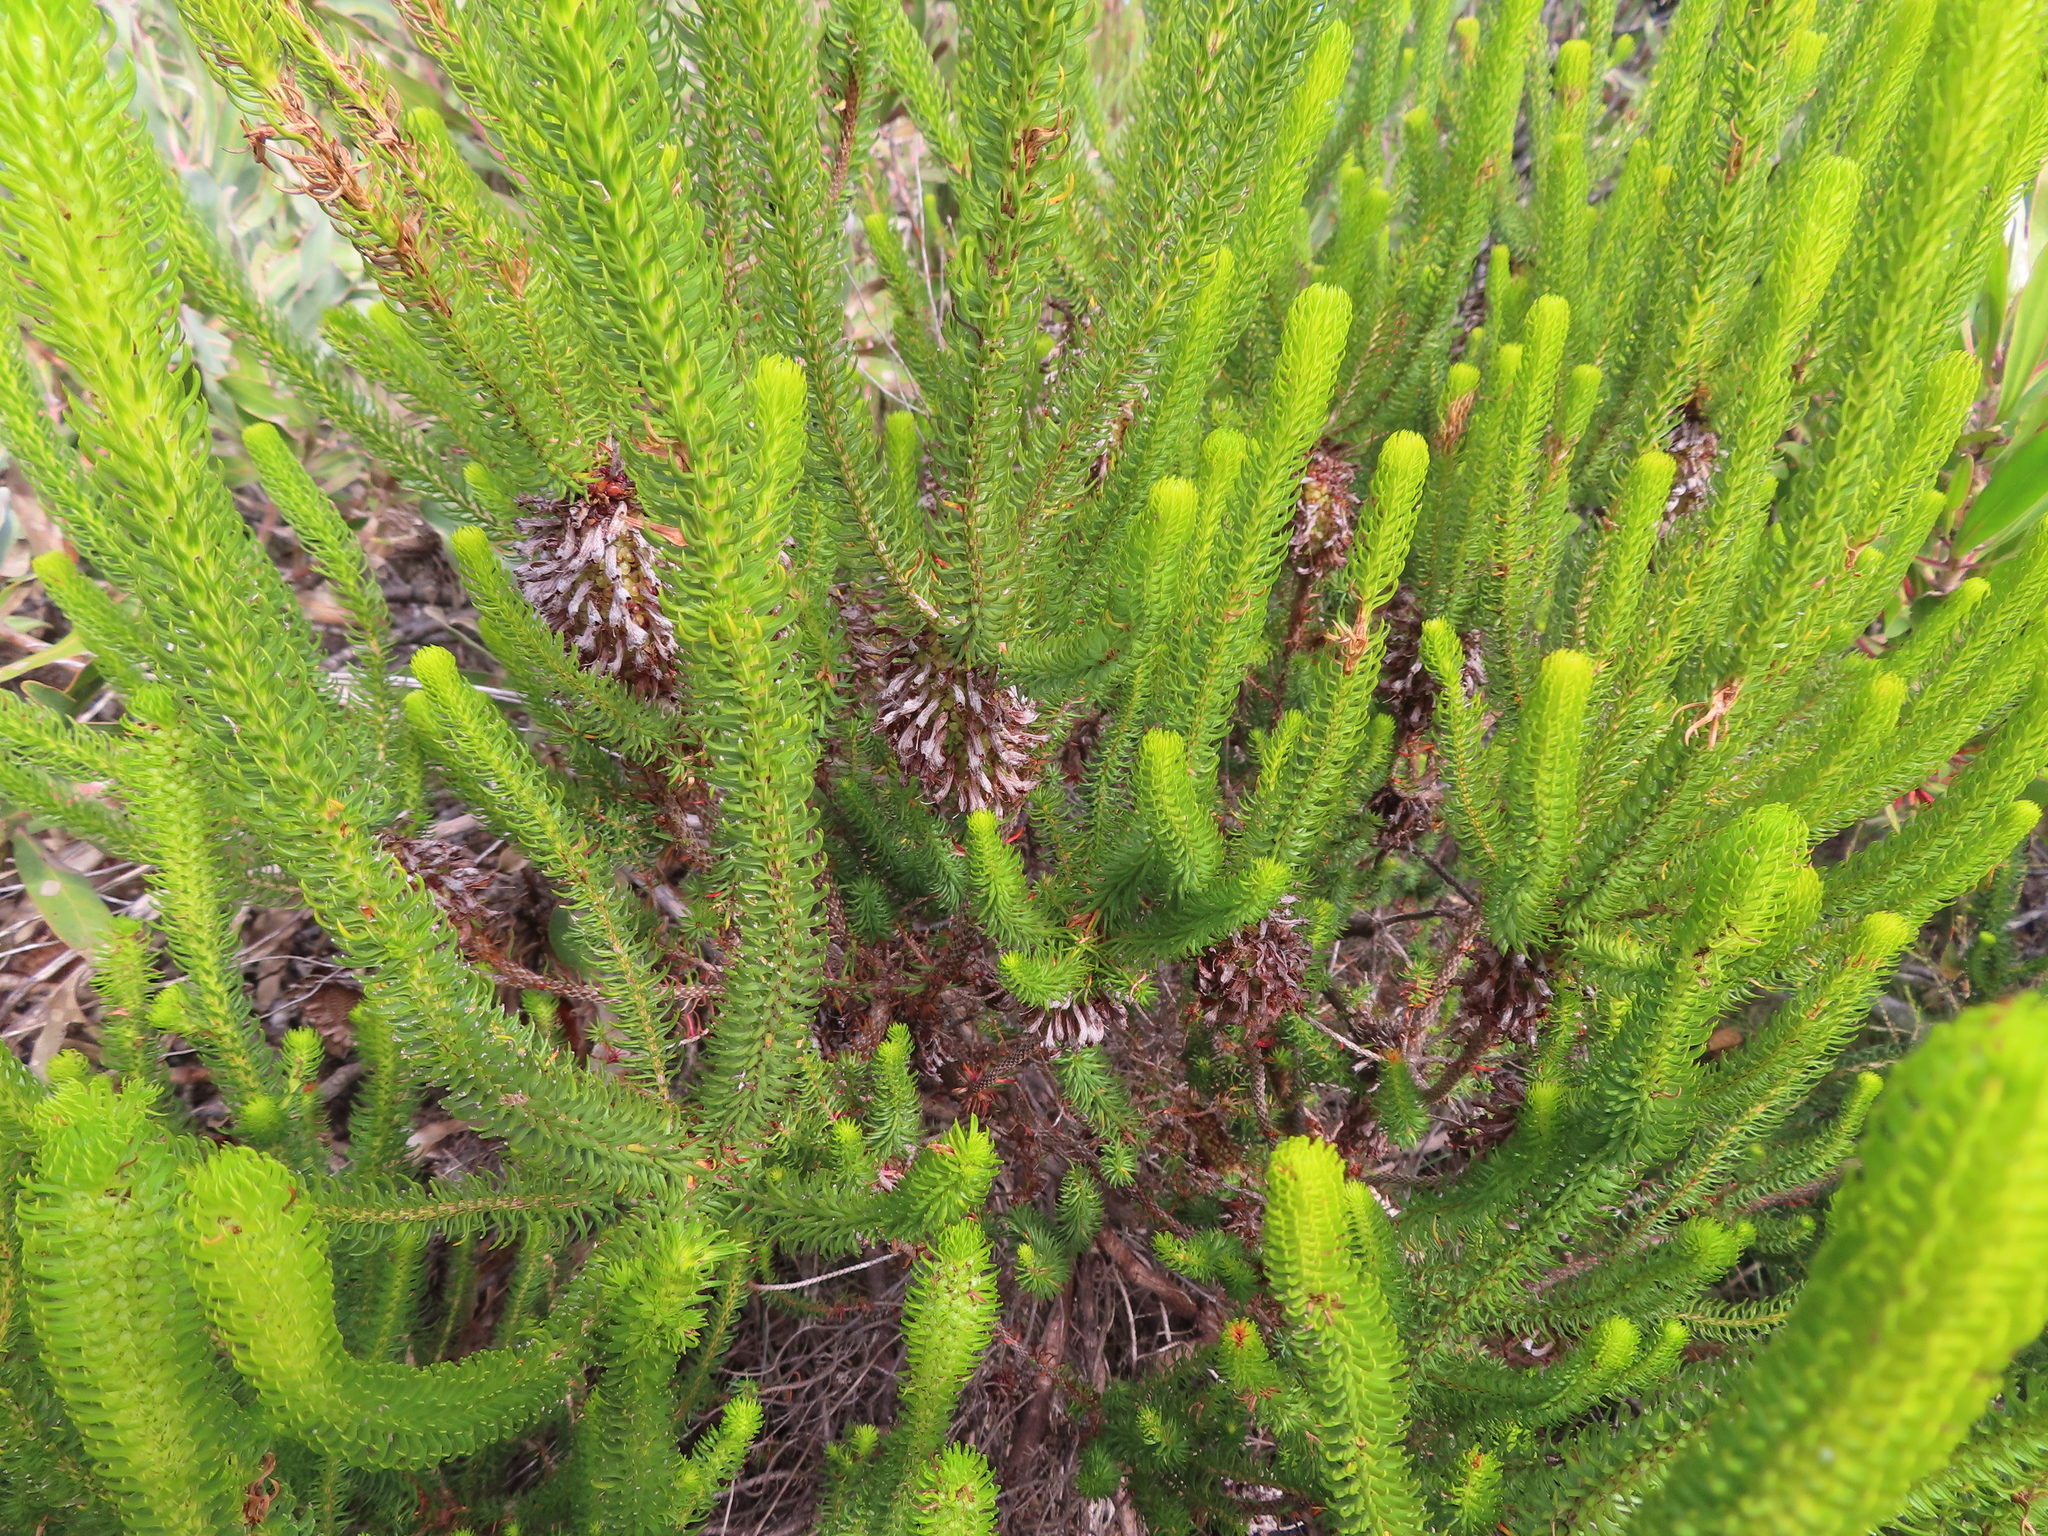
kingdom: Plantae
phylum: Tracheophyta
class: Magnoliopsida
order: Ericales
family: Ericaceae
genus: Erica
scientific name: Erica sessiliflora
